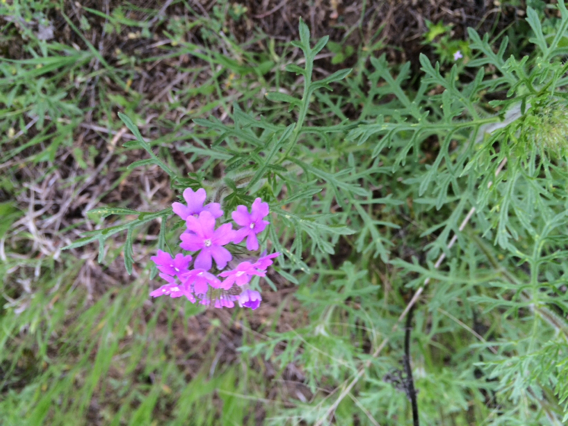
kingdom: Plantae
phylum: Tracheophyta
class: Magnoliopsida
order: Lamiales
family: Verbenaceae
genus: Verbena
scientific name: Verbena bipinnatifida
